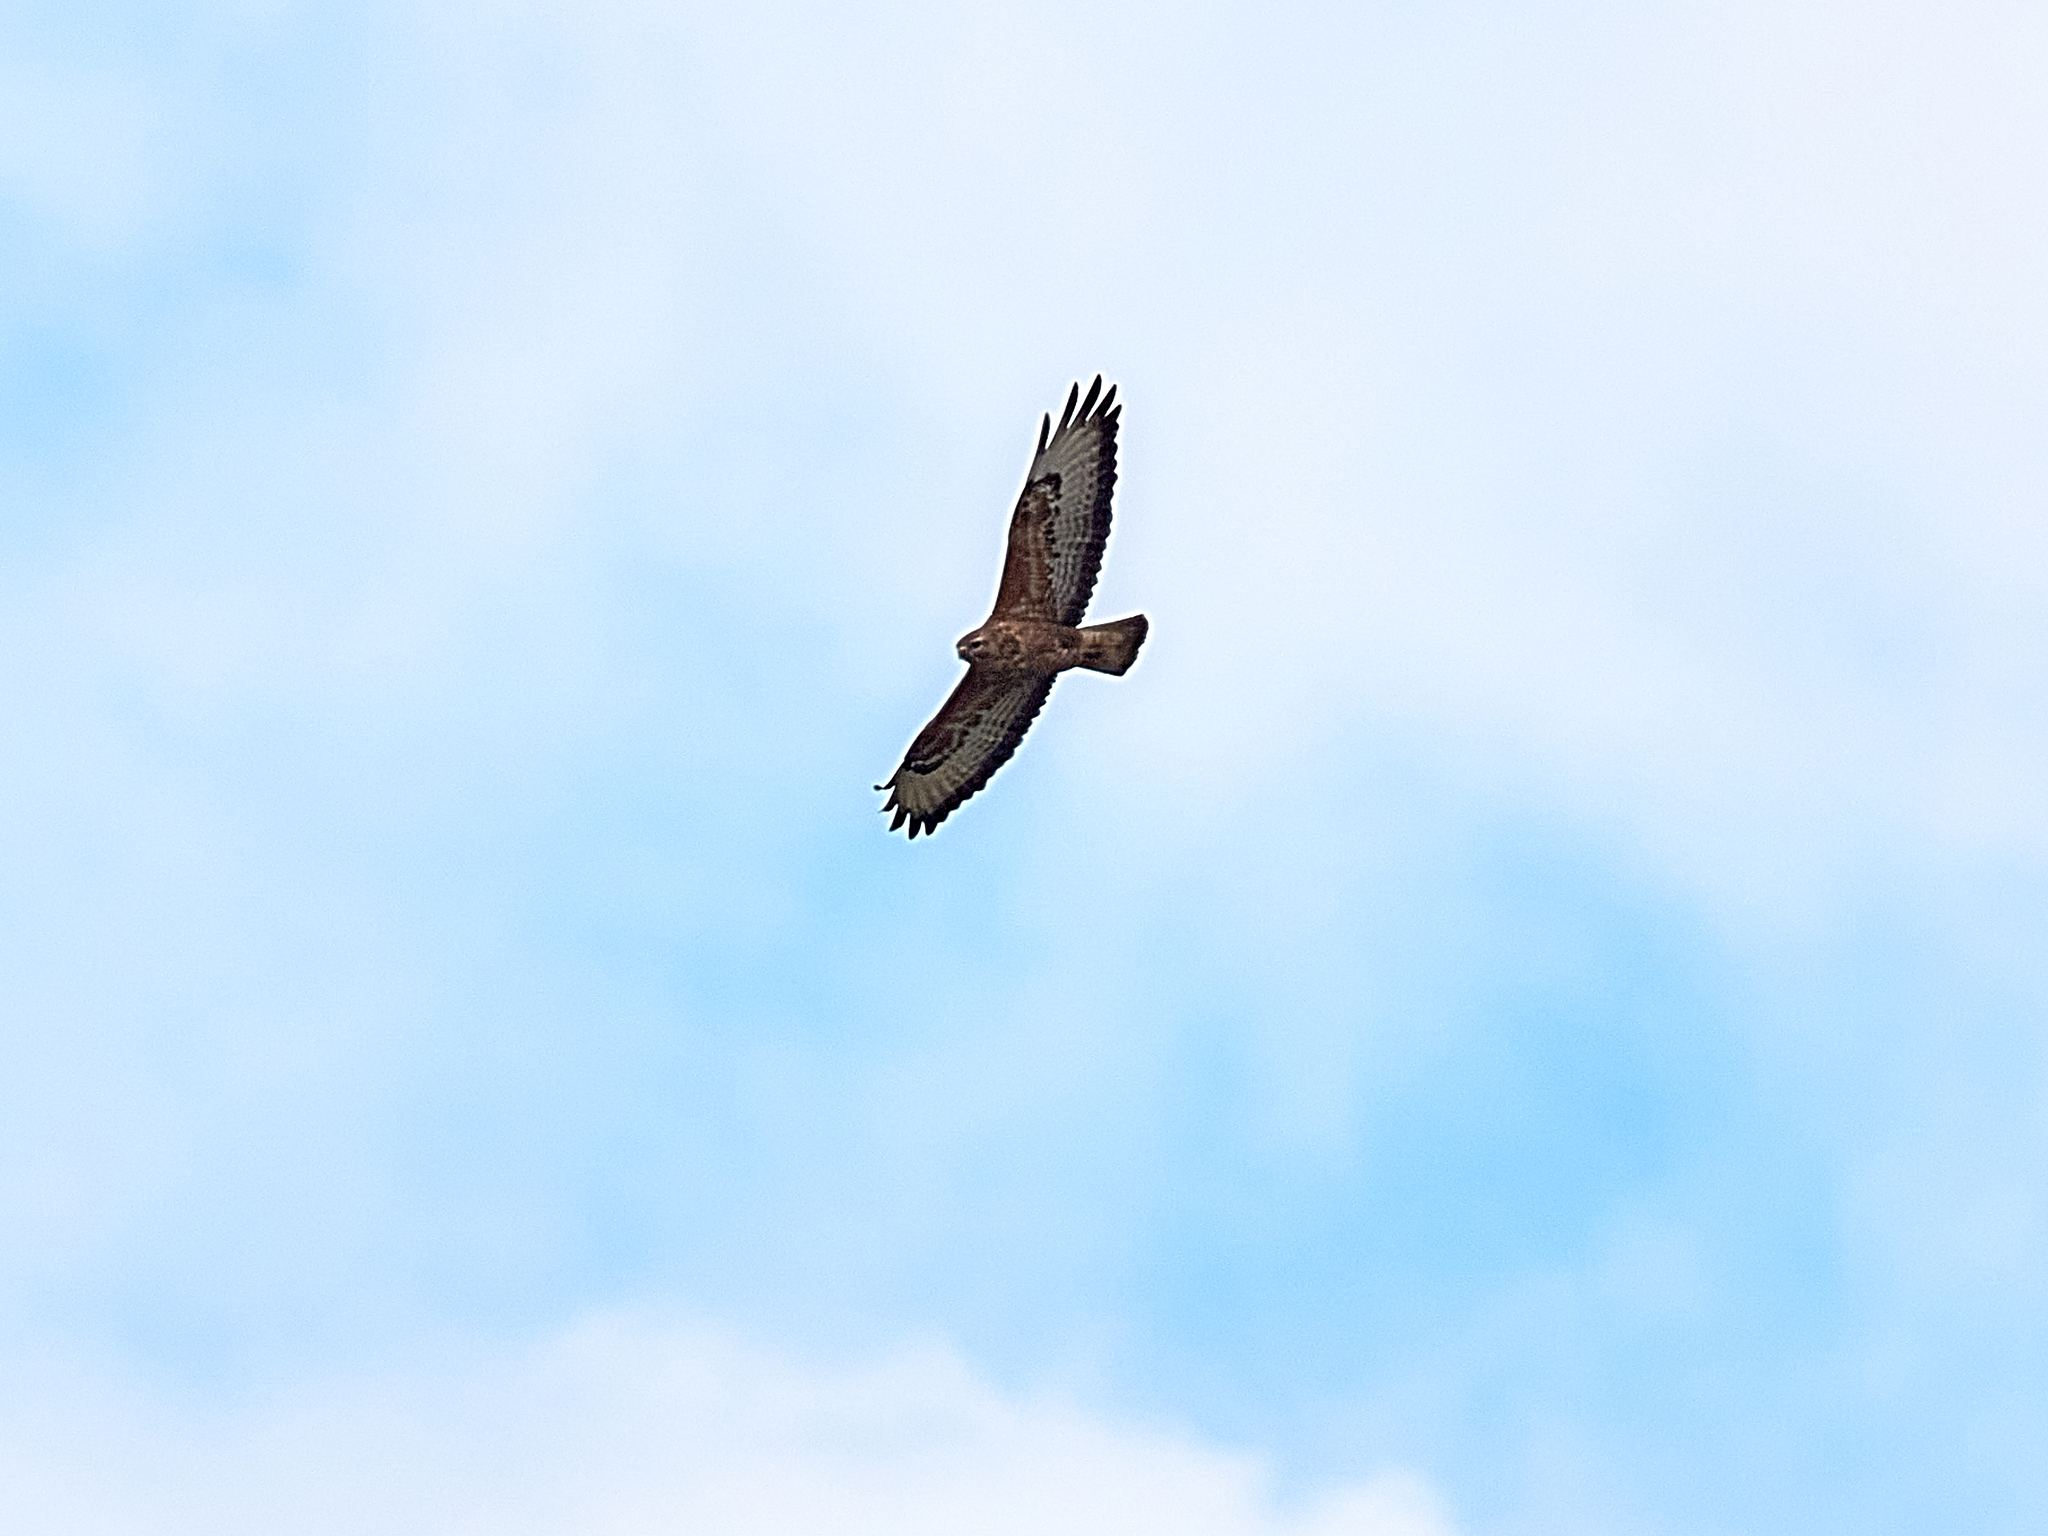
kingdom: Animalia
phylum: Chordata
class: Aves
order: Accipitriformes
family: Accipitridae
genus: Buteo
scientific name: Buteo buteo
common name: Common buzzard
